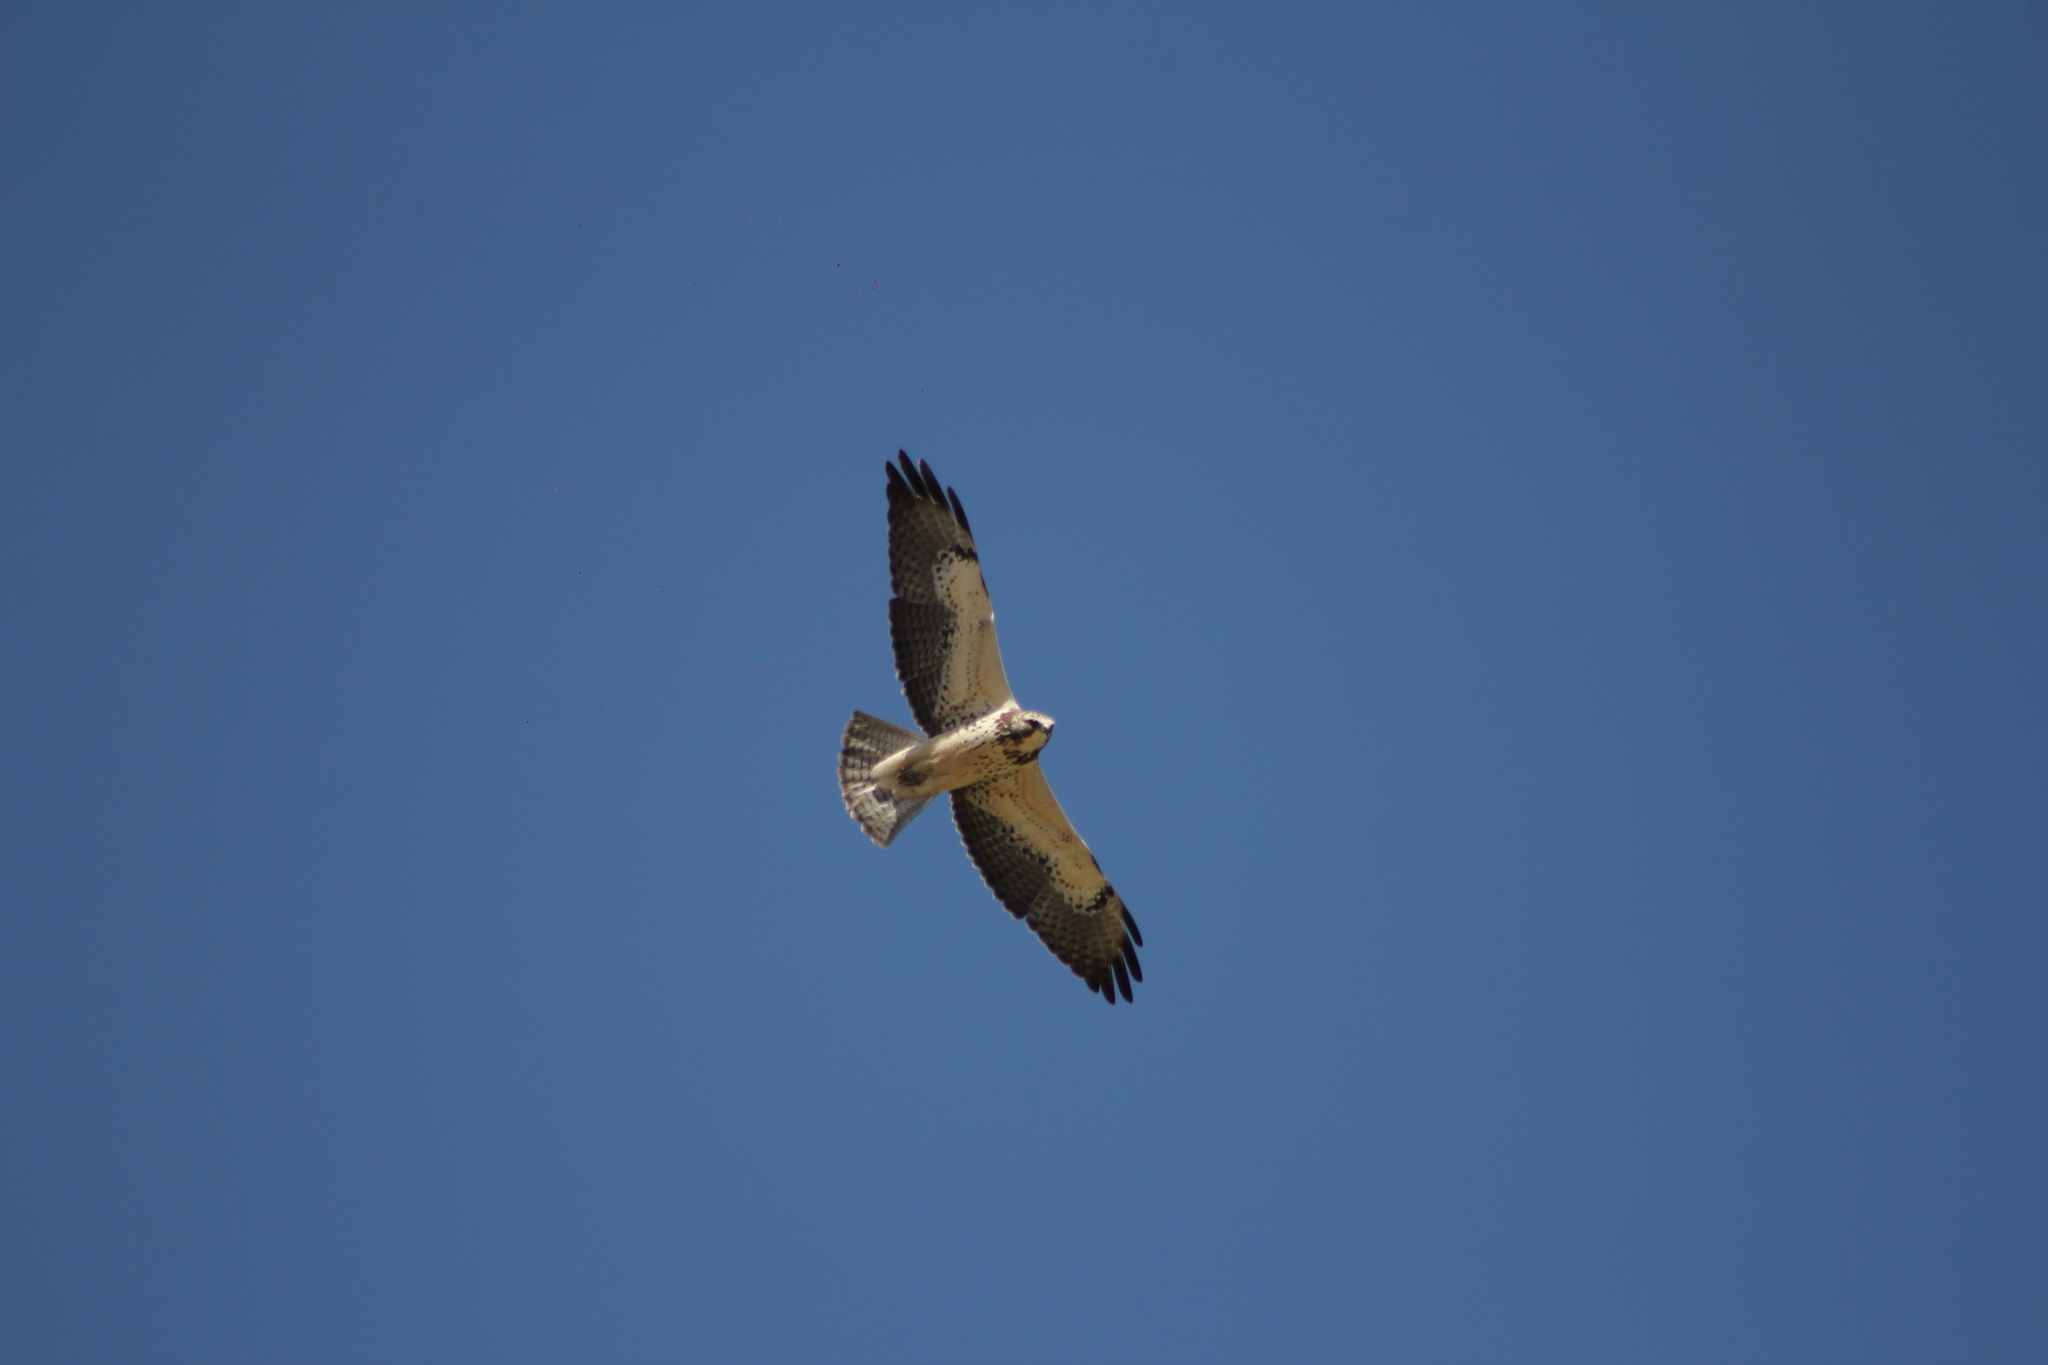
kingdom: Animalia
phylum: Chordata
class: Aves
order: Accipitriformes
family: Accipitridae
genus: Buteo
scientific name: Buteo swainsoni
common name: Swainson's hawk
